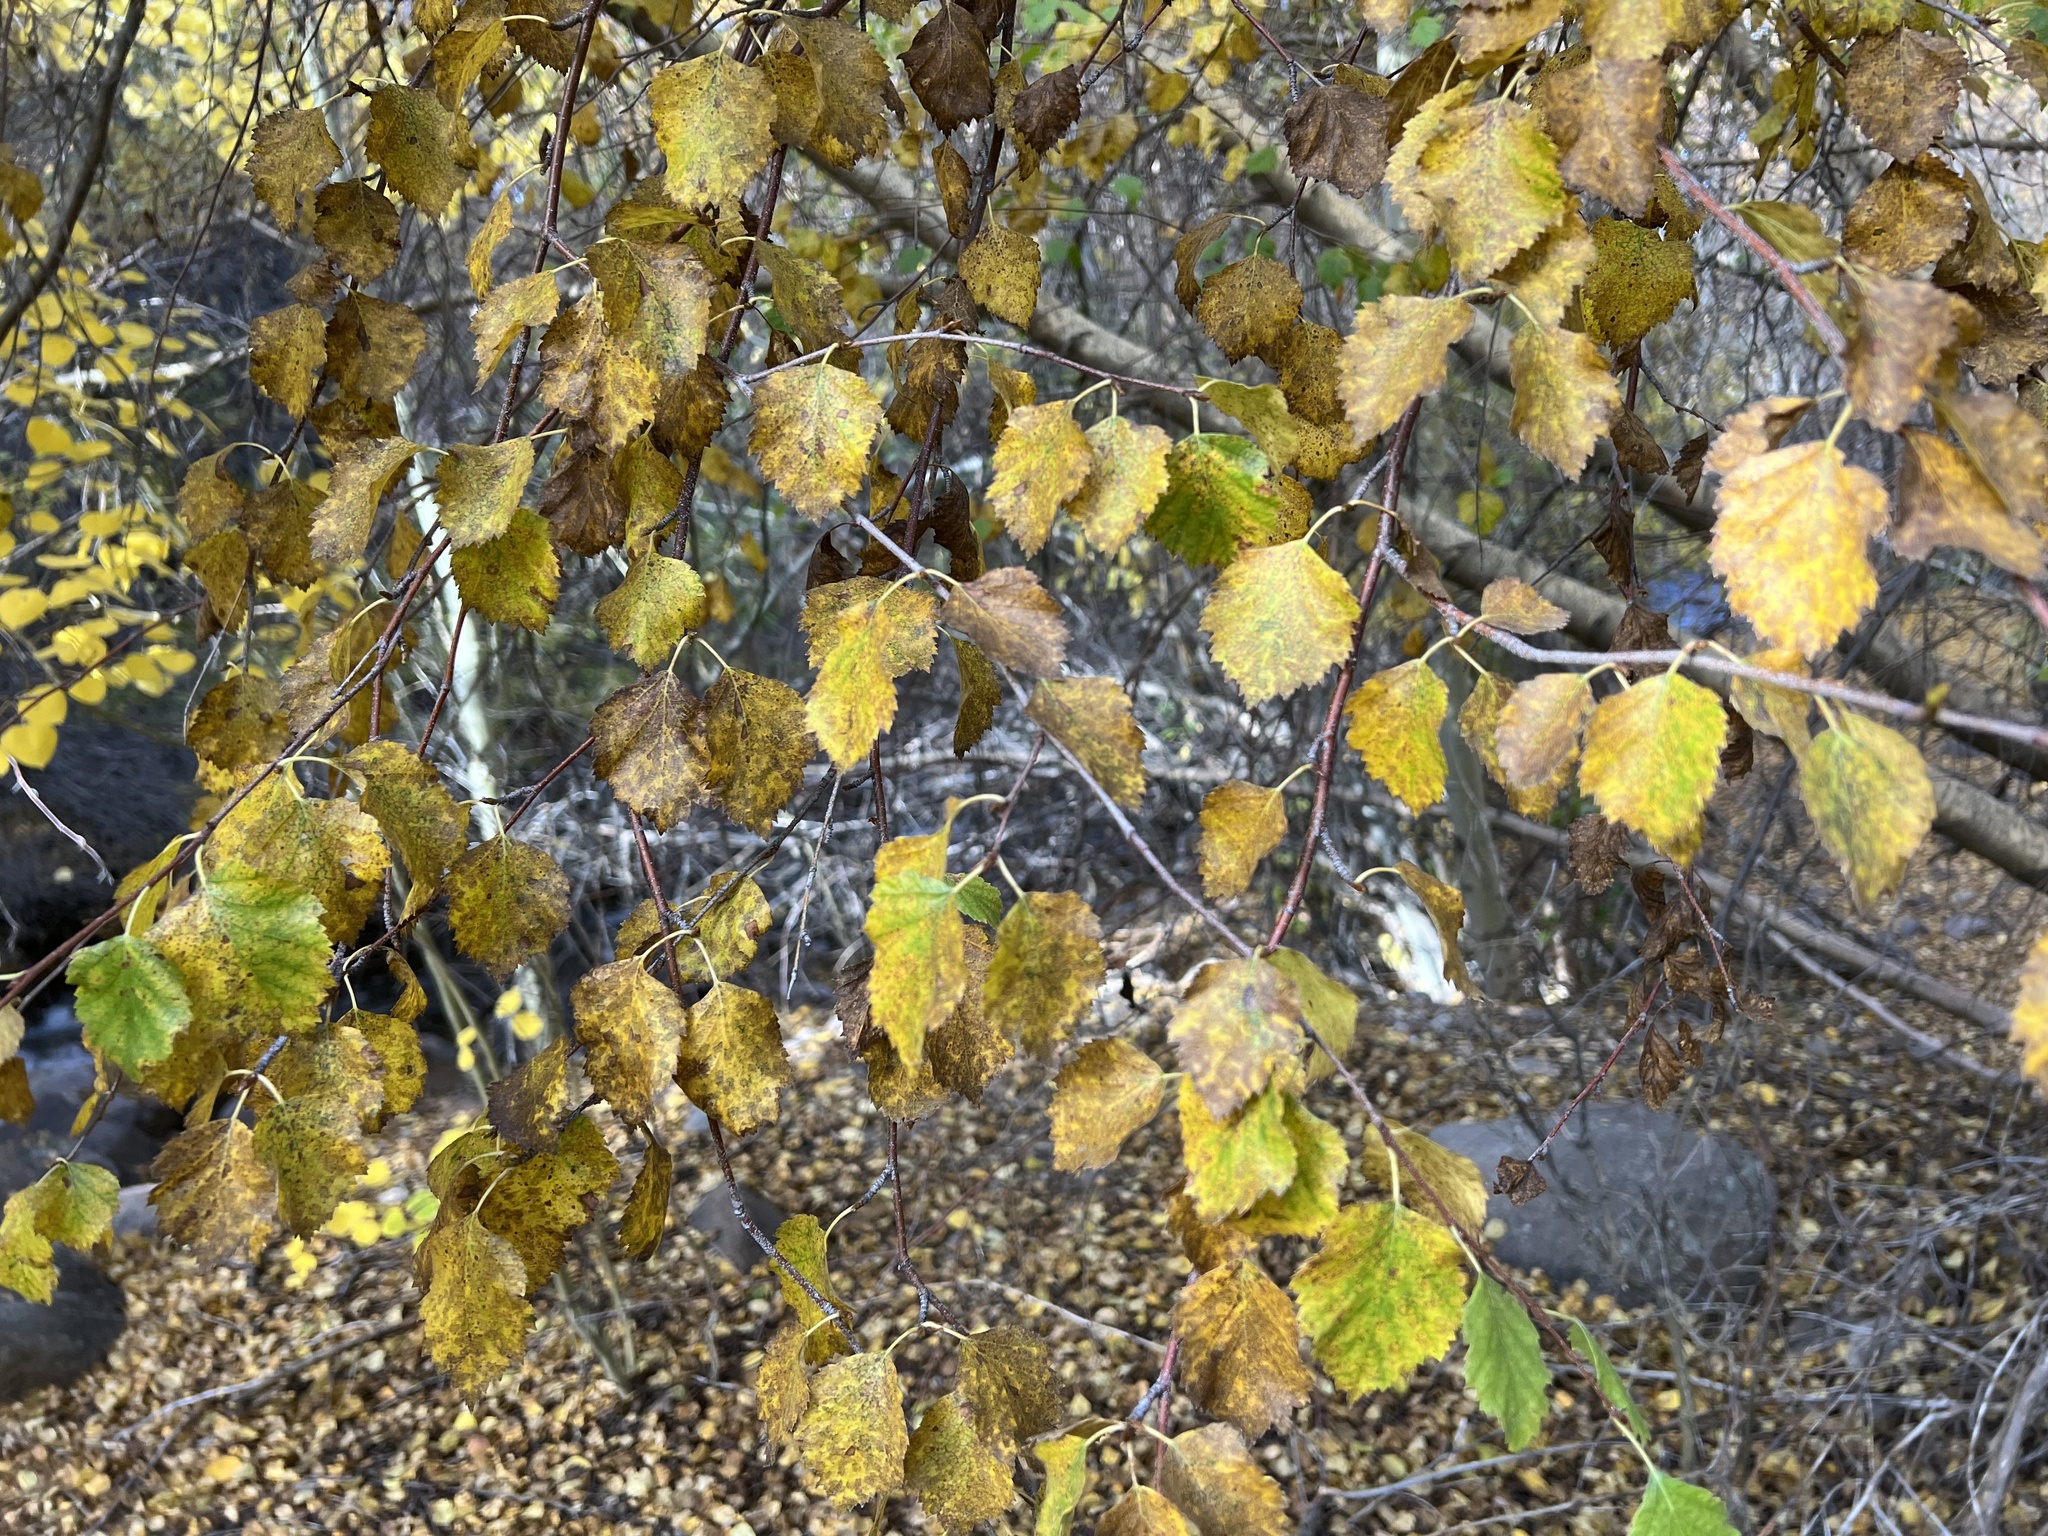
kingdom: Plantae
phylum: Tracheophyta
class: Magnoliopsida
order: Fagales
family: Betulaceae
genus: Betula
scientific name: Betula occidentalis
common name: River birch
